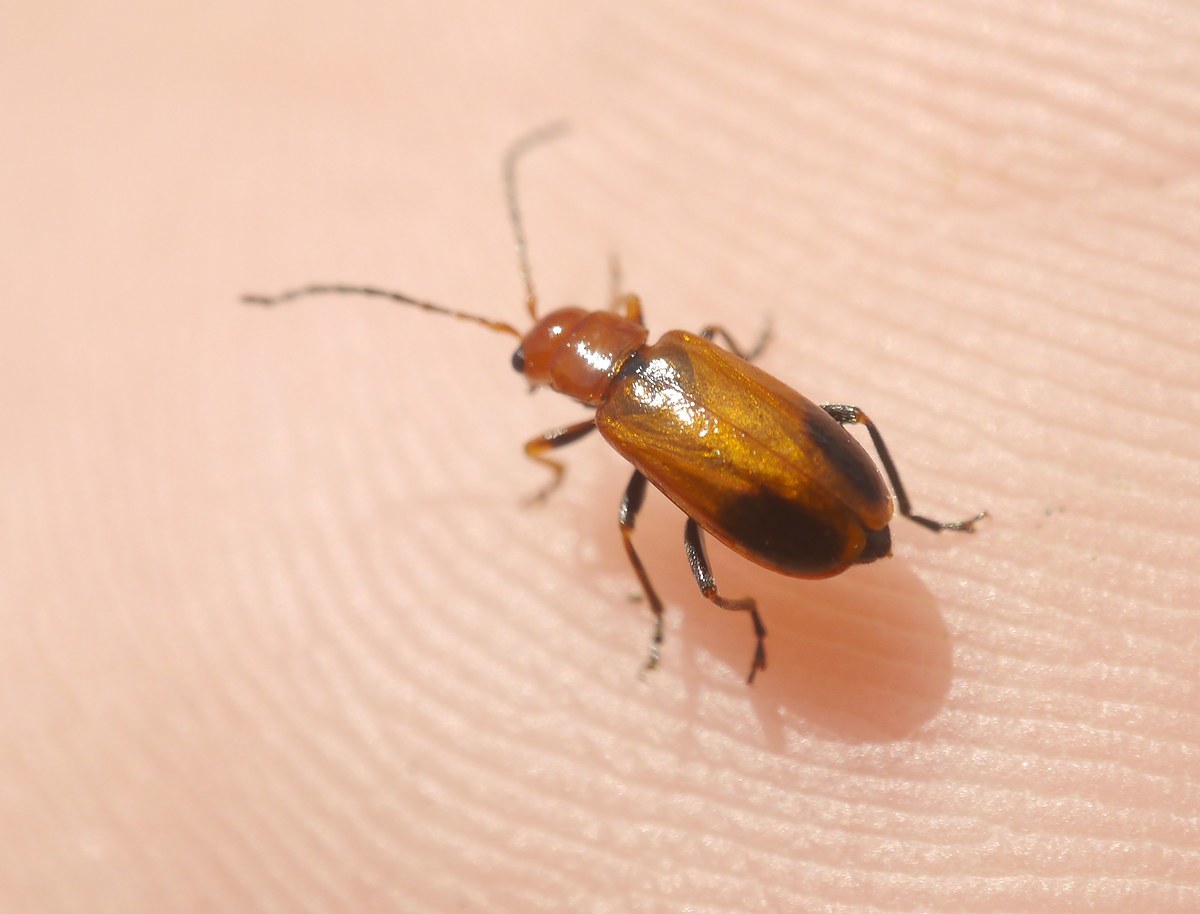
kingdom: Animalia
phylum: Arthropoda
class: Insecta
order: Coleoptera
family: Chrysomelidae
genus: Phyllobrotica
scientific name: Phyllobrotica adusta
